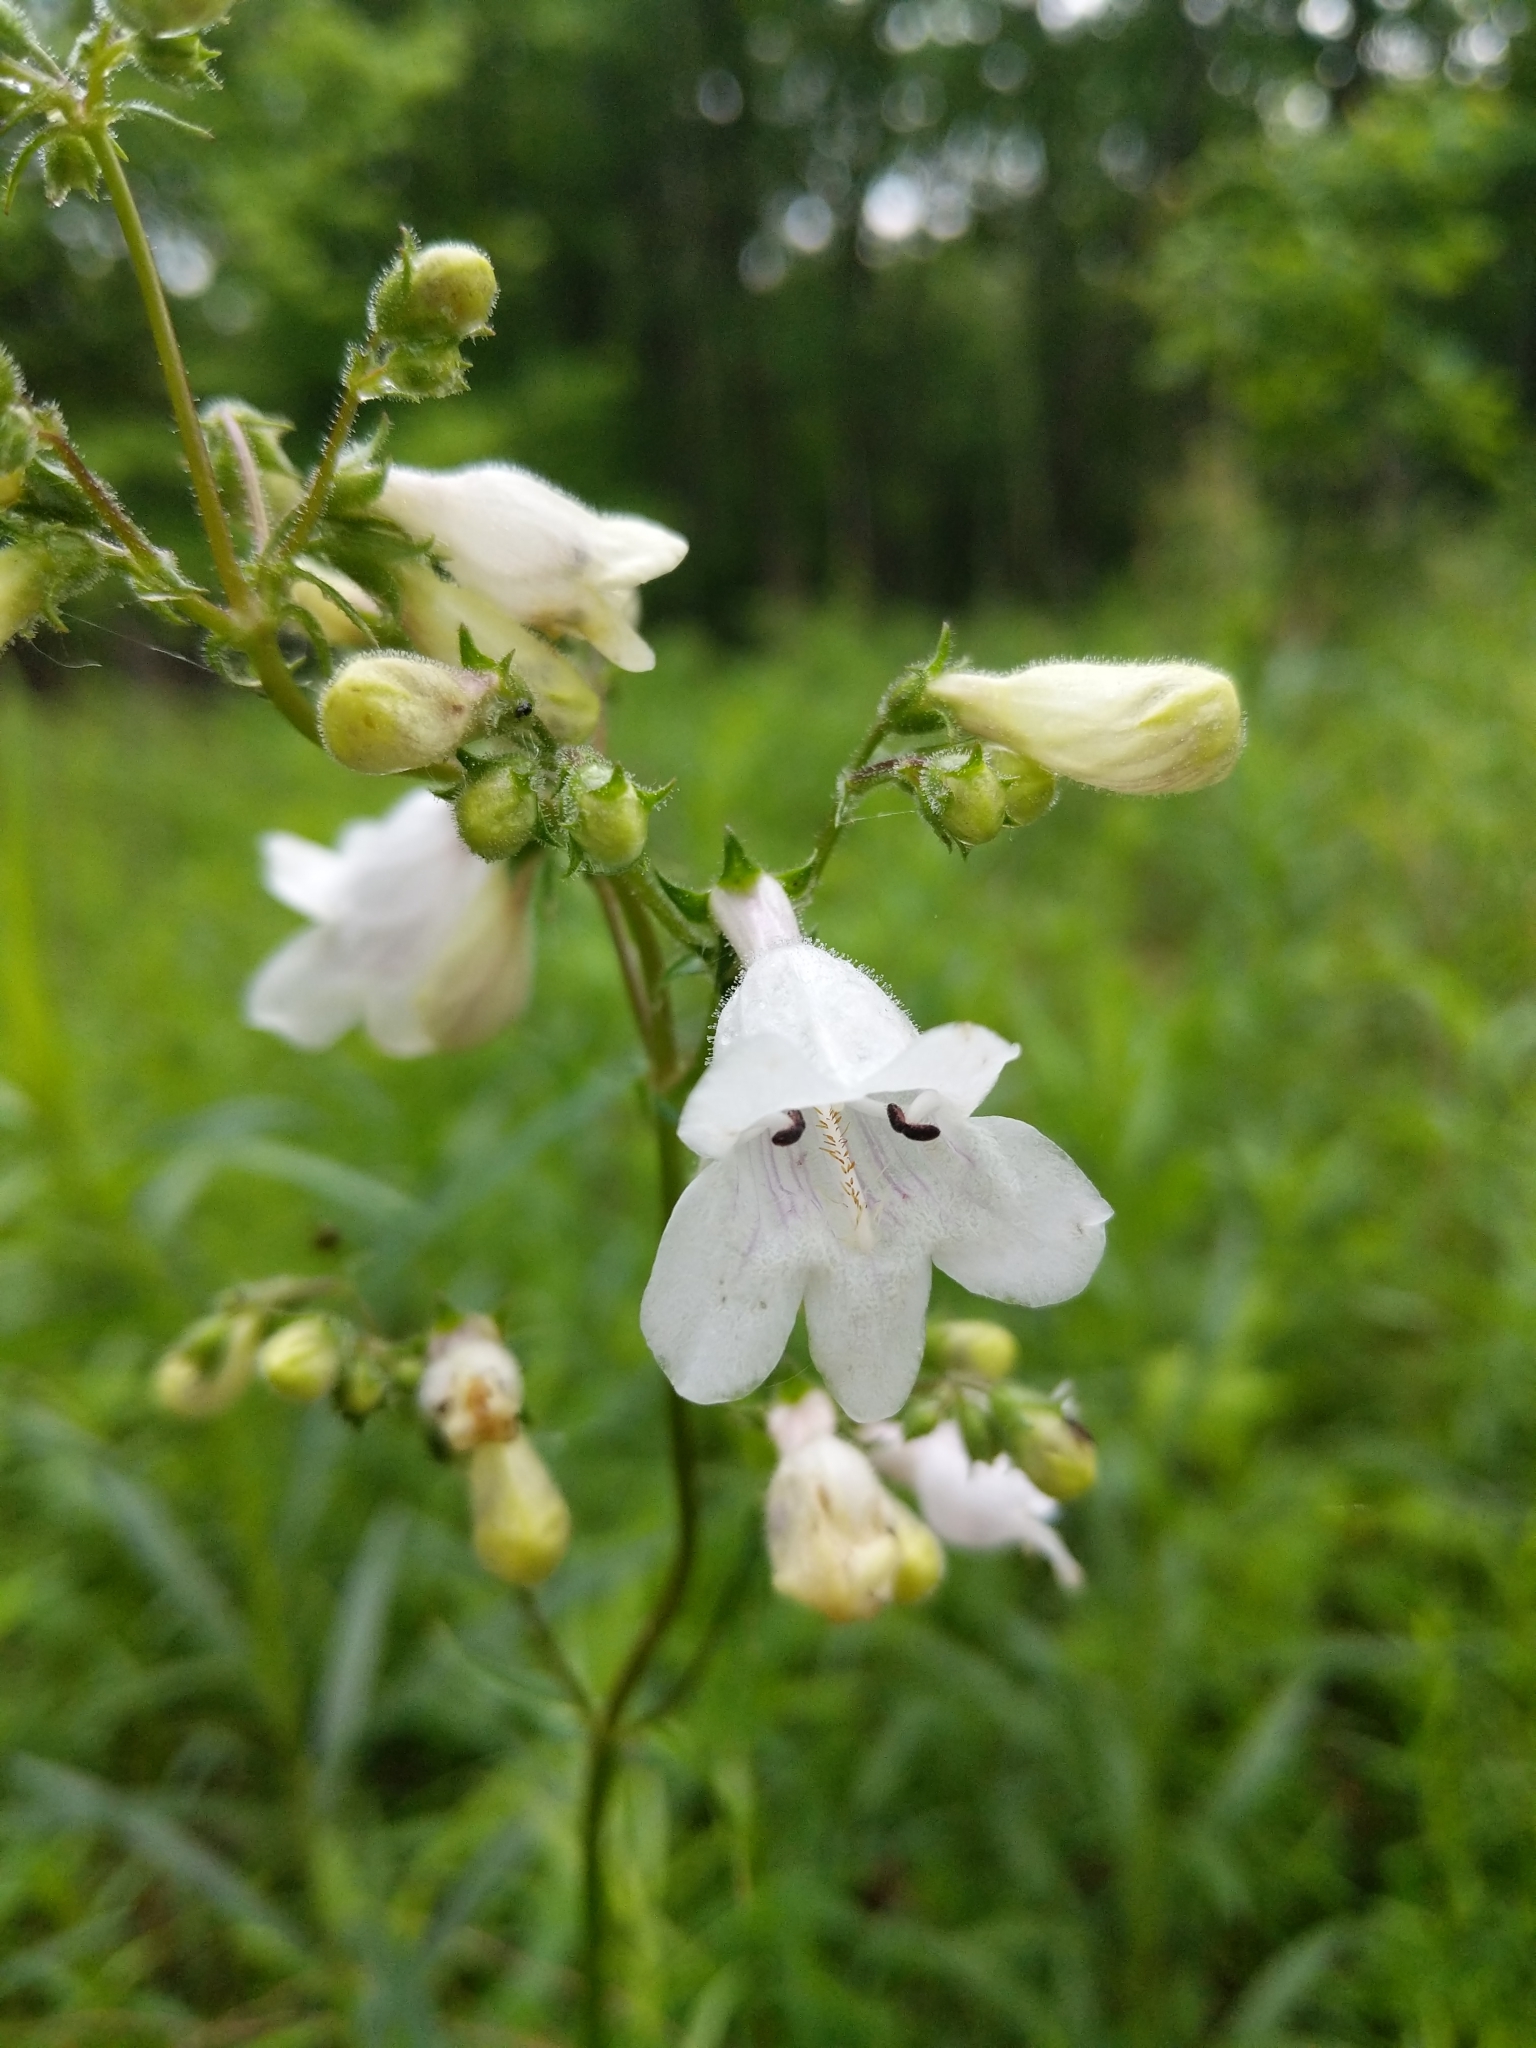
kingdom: Plantae
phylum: Tracheophyta
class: Magnoliopsida
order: Lamiales
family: Plantaginaceae
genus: Penstemon
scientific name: Penstemon digitalis
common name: Foxglove beardtongue
